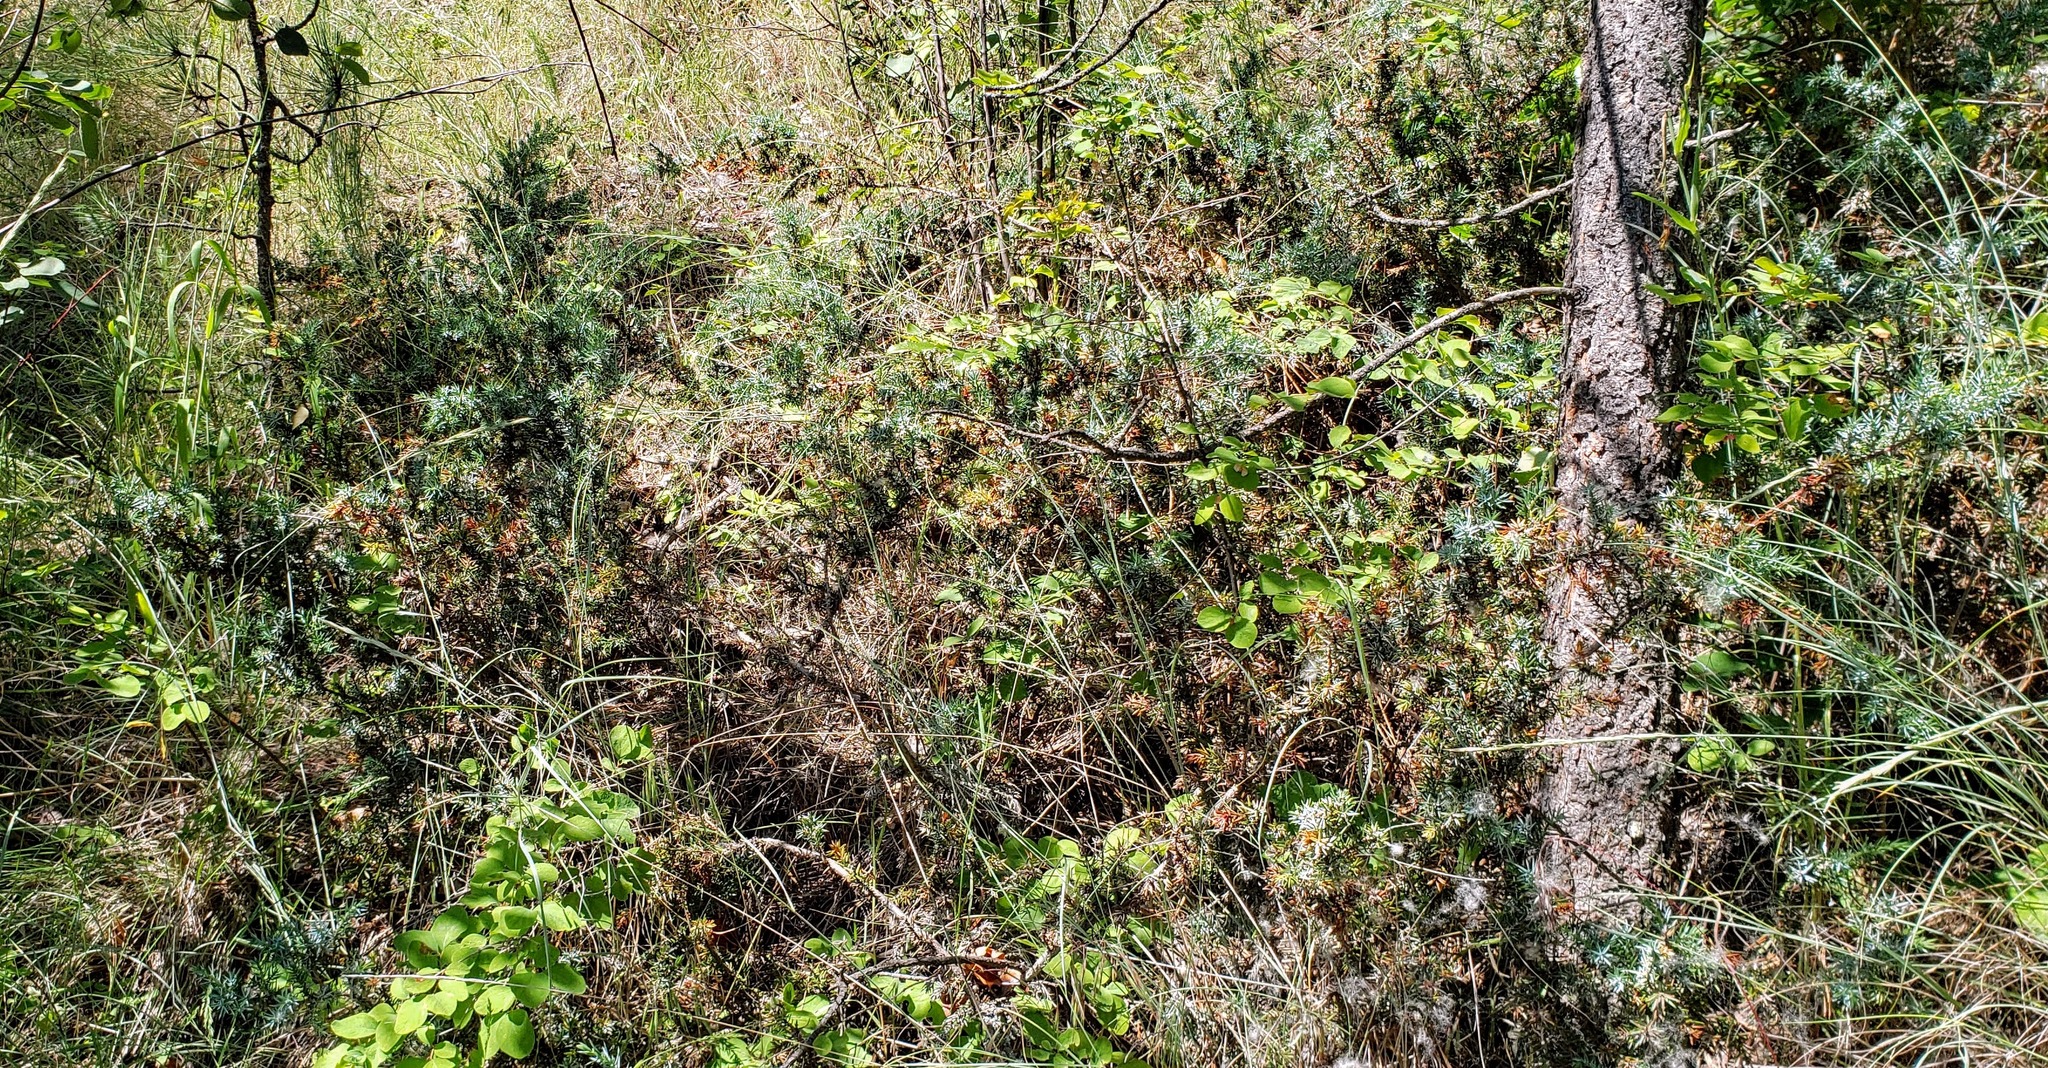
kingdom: Plantae
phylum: Tracheophyta
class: Pinopsida
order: Pinales
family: Cupressaceae
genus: Juniperus
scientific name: Juniperus communis
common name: Common juniper
